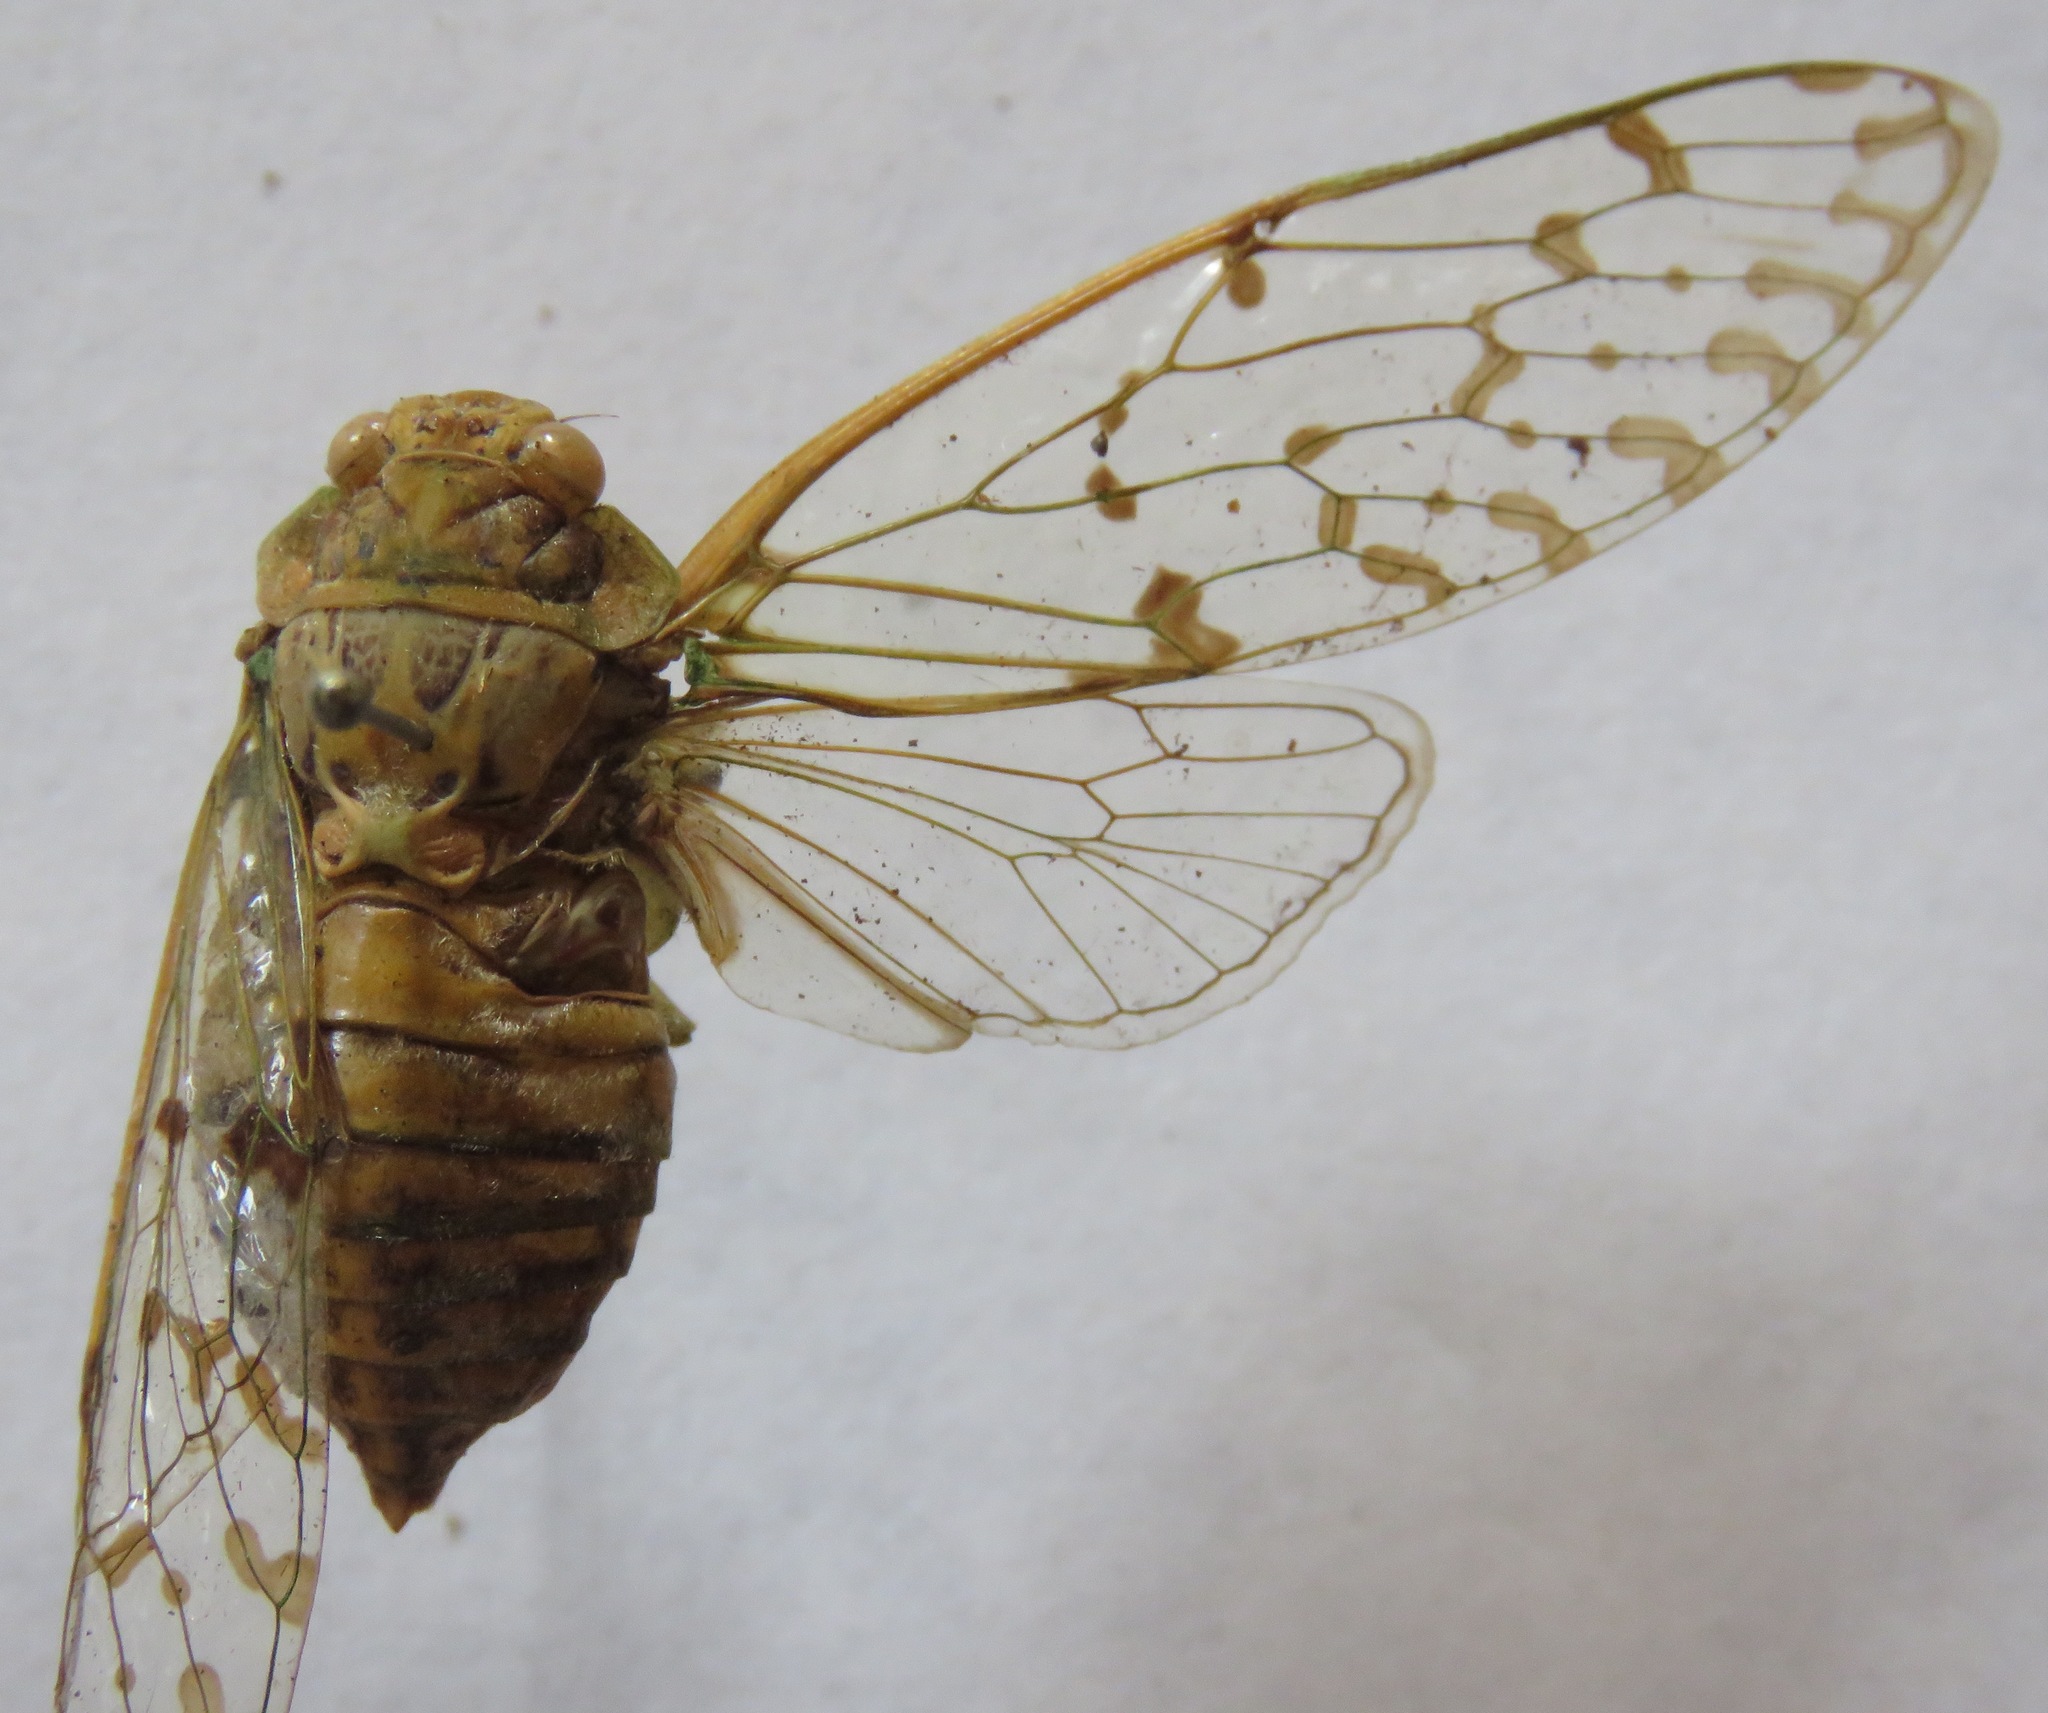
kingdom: Animalia
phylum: Arthropoda
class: Insecta
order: Hemiptera
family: Cicadidae
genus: Procollina
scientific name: Procollina nicaraguaensis
